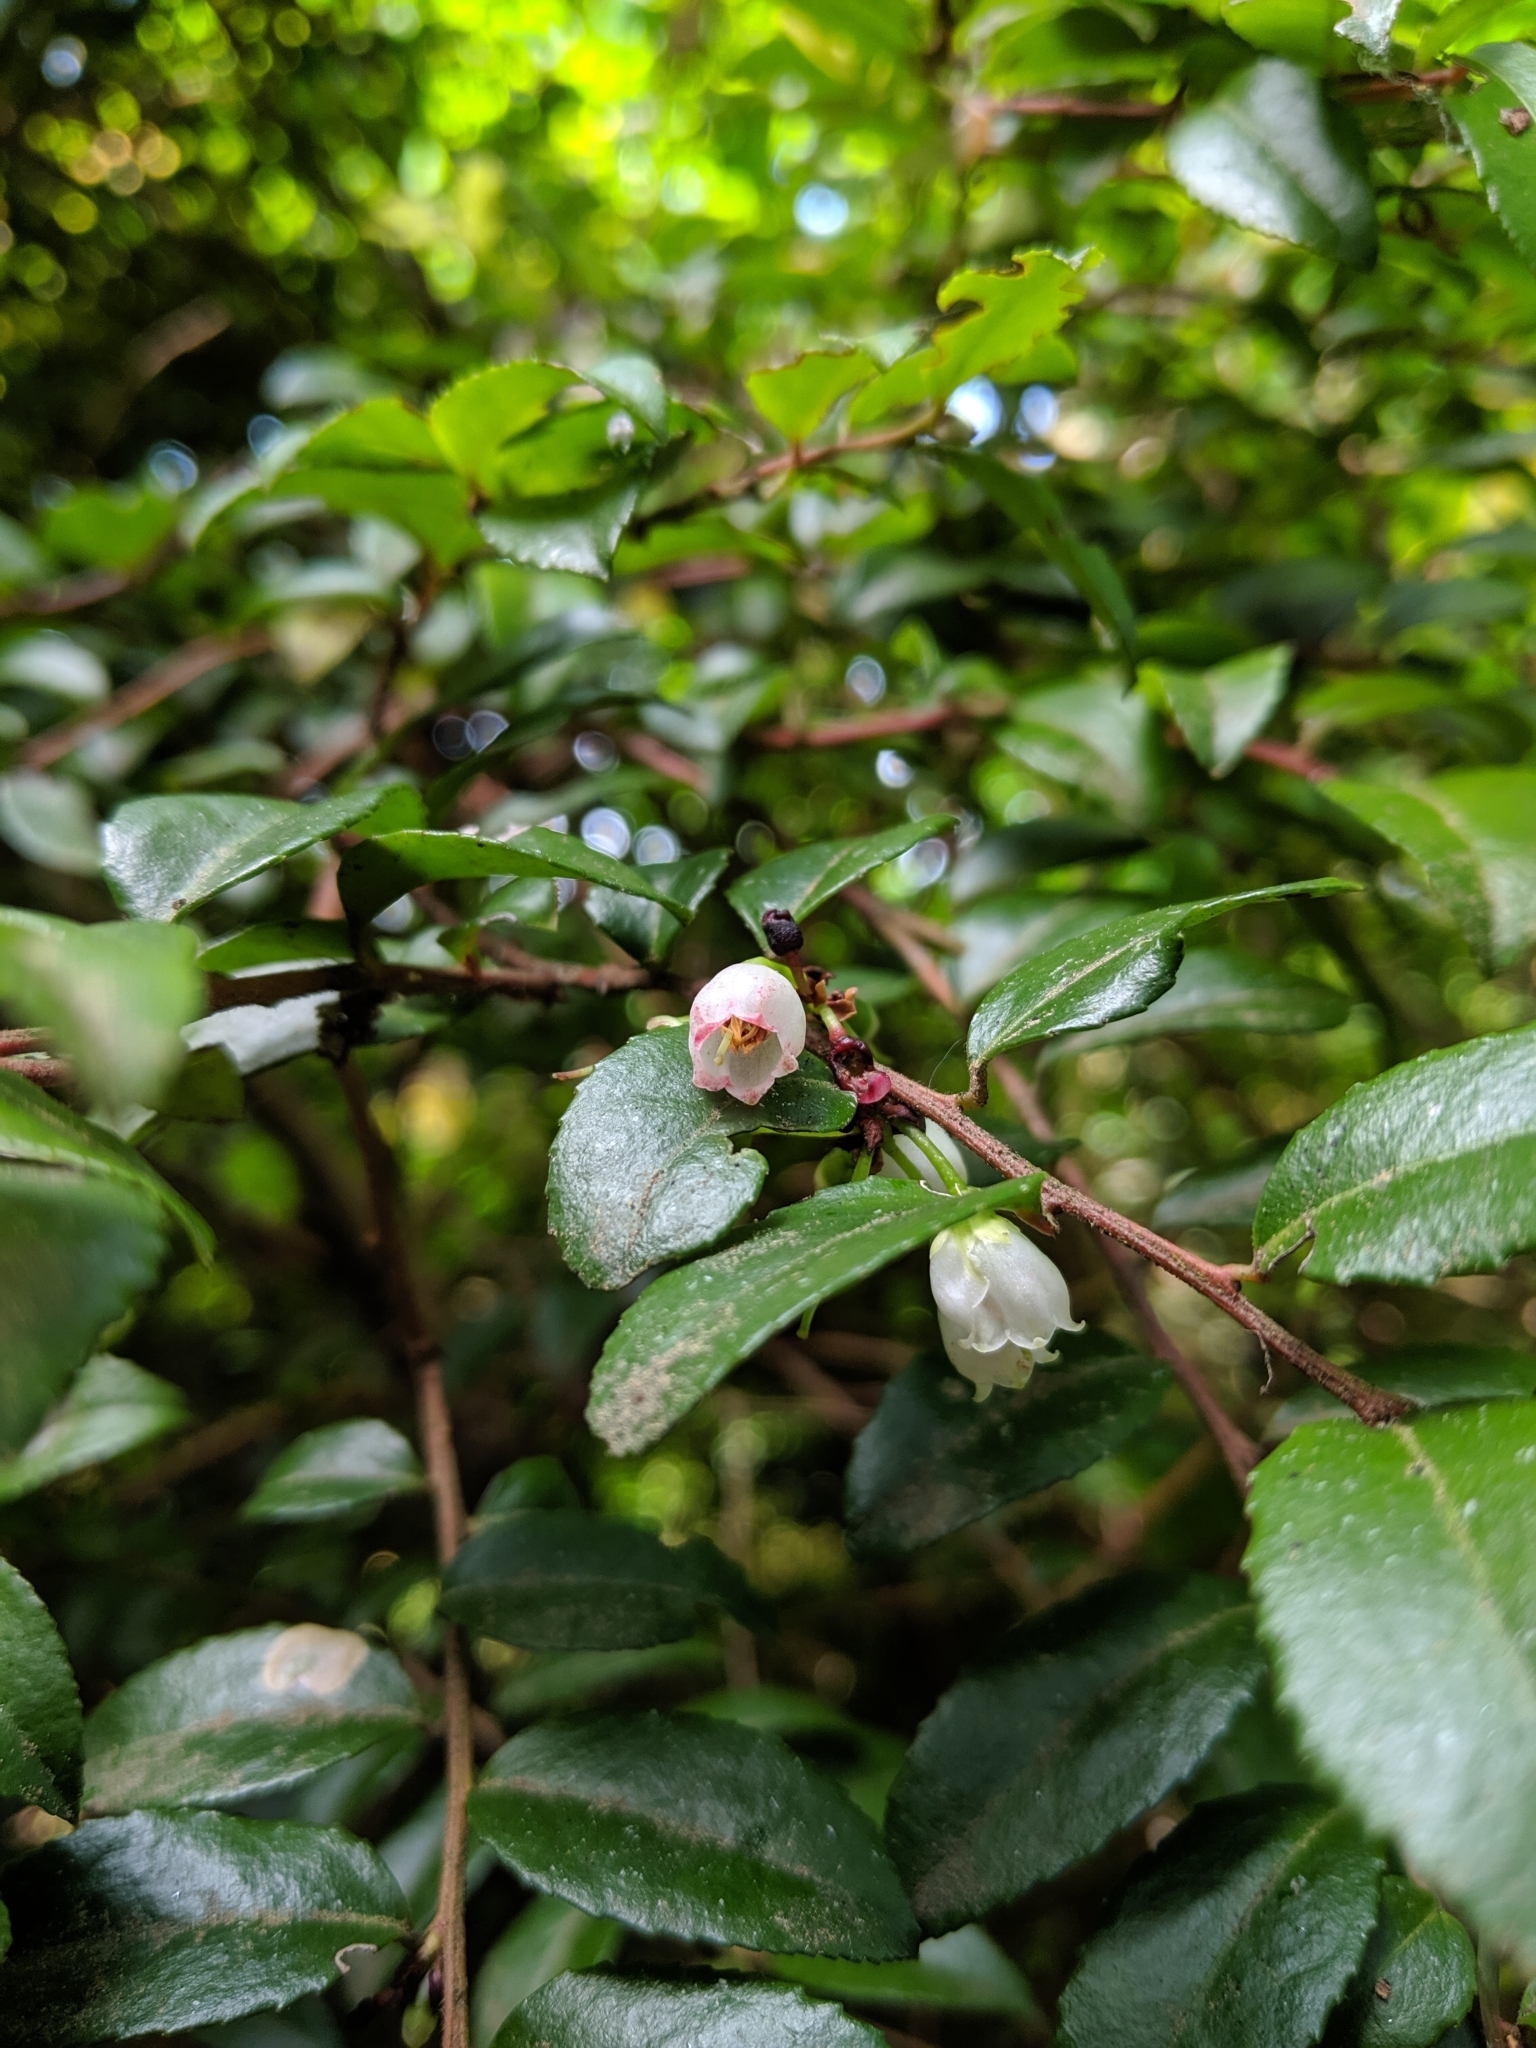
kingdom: Plantae
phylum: Tracheophyta
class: Magnoliopsida
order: Ericales
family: Ericaceae
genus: Vaccinium
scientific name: Vaccinium ovatum
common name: California-huckleberry
